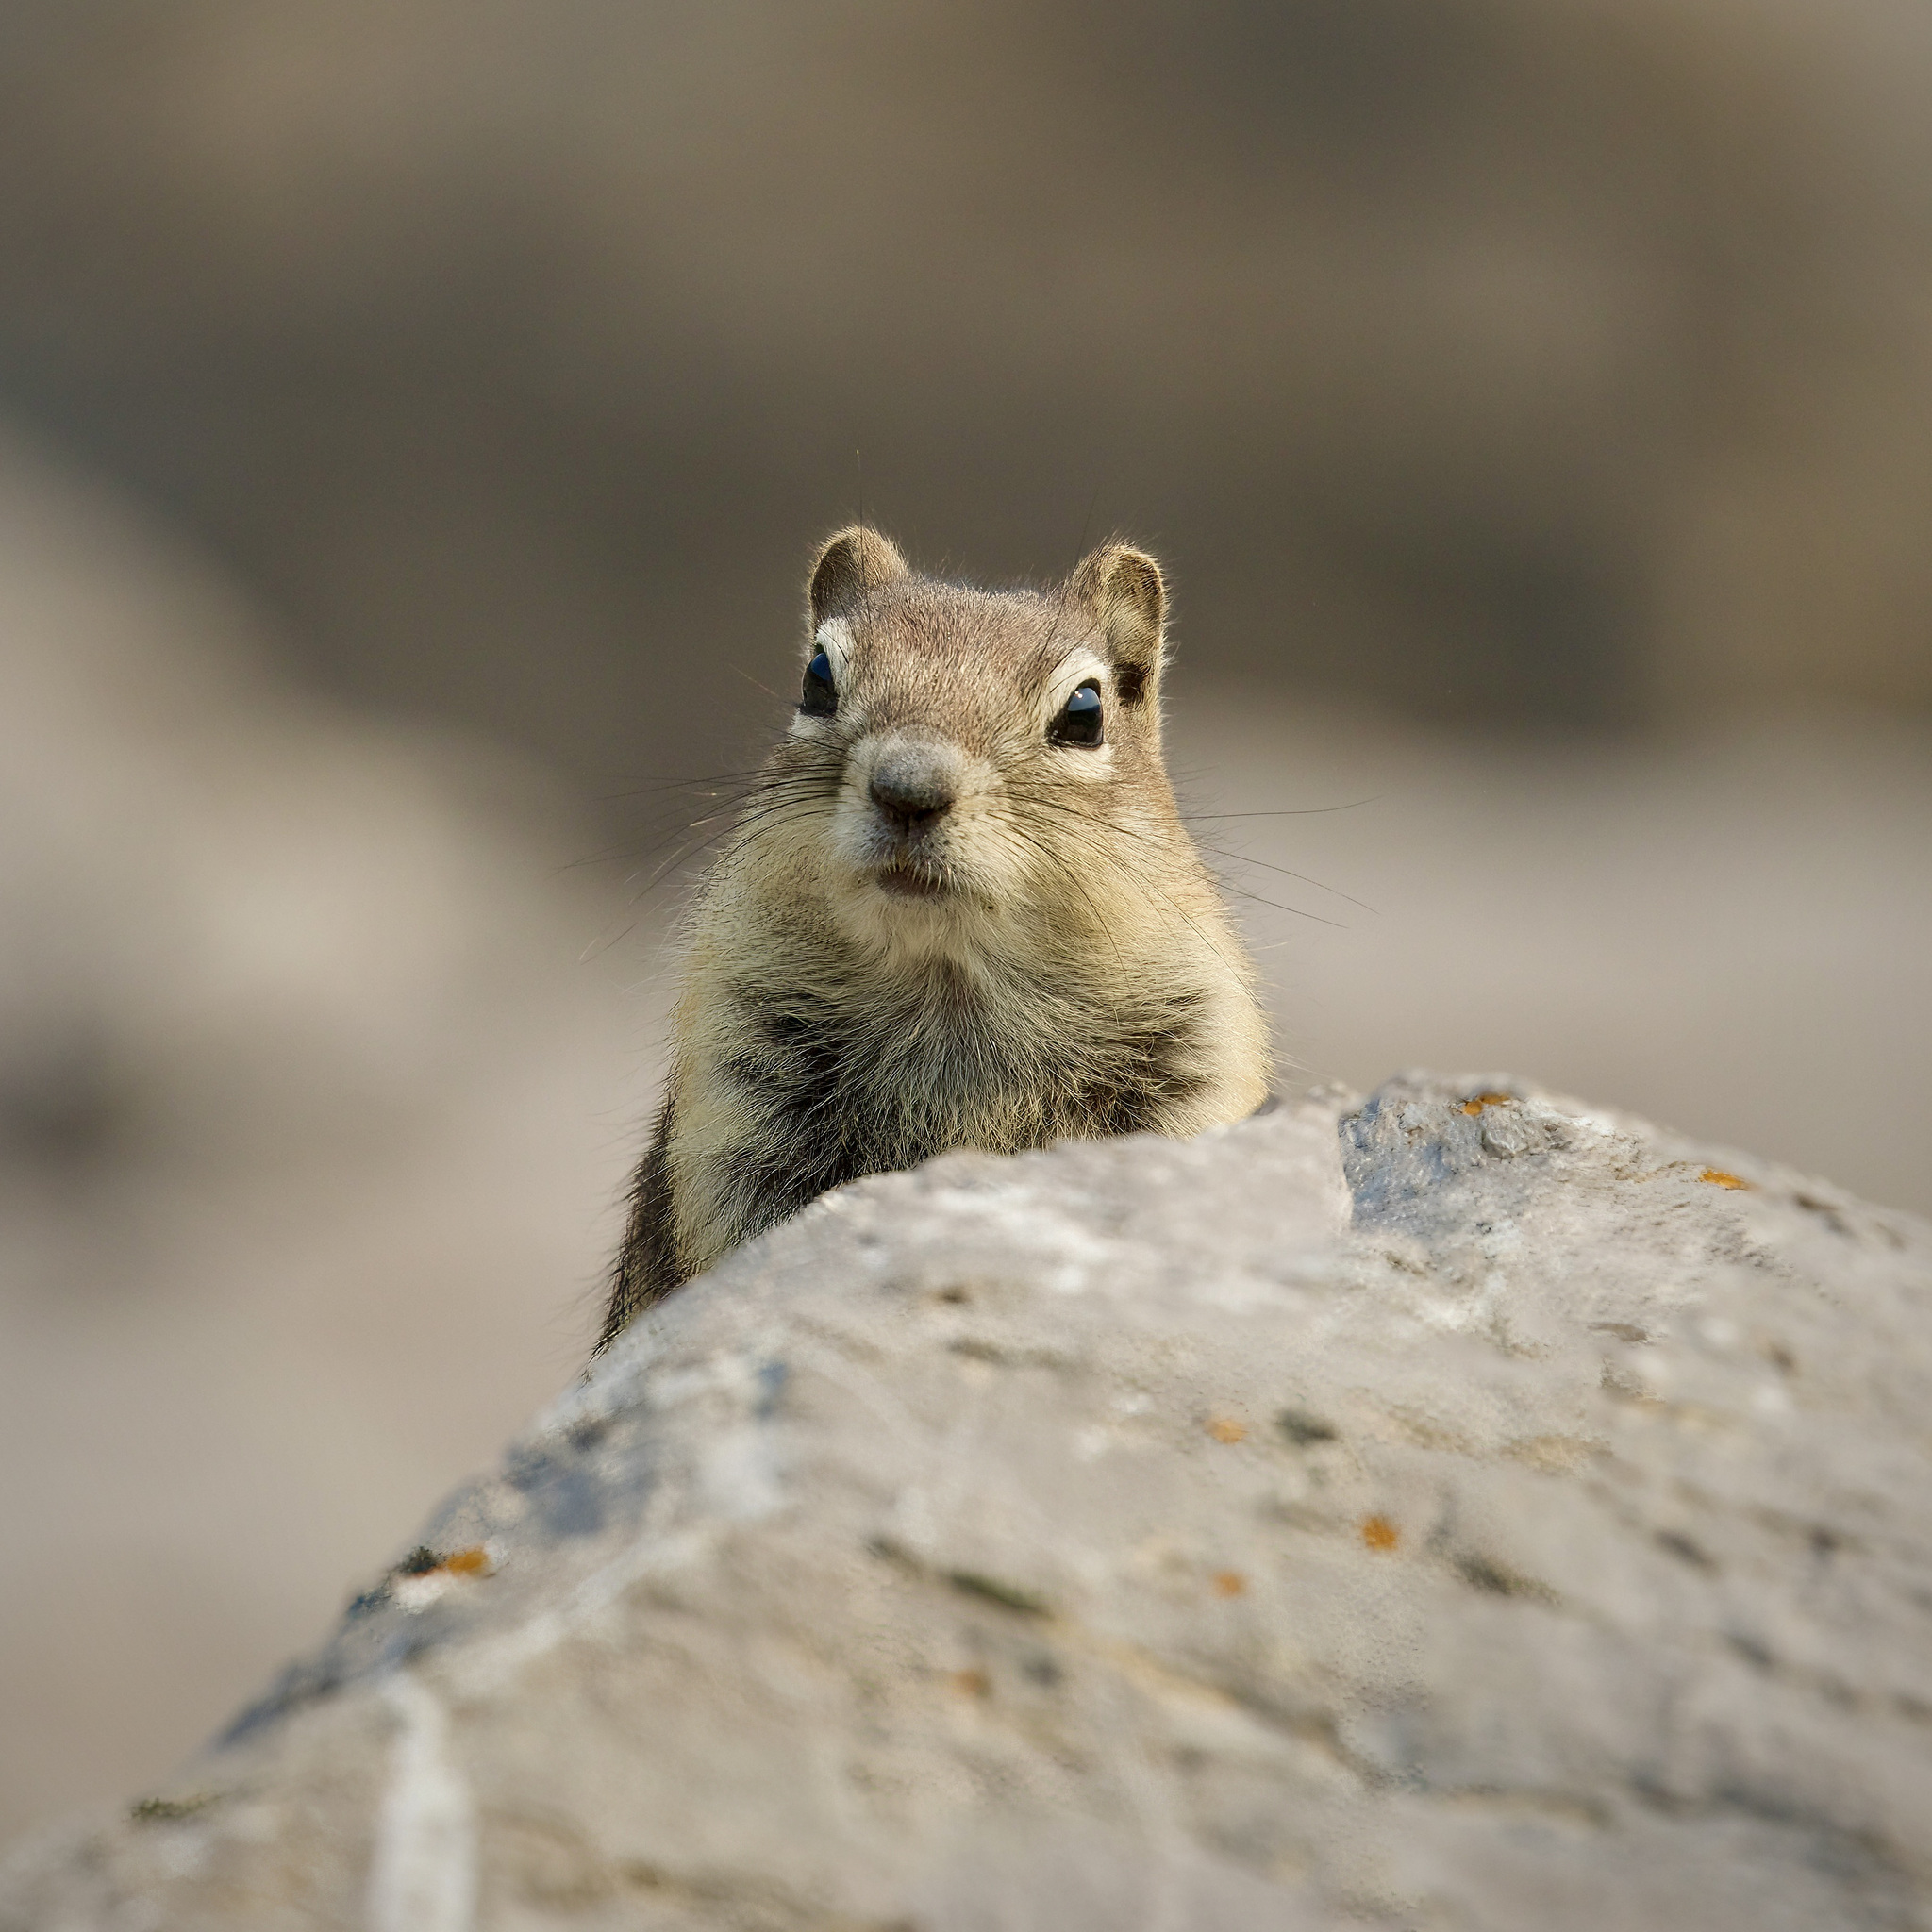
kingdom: Animalia
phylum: Chordata
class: Mammalia
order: Rodentia
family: Sciuridae
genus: Callospermophilus
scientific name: Callospermophilus lateralis
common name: Golden-mantled ground squirrel
